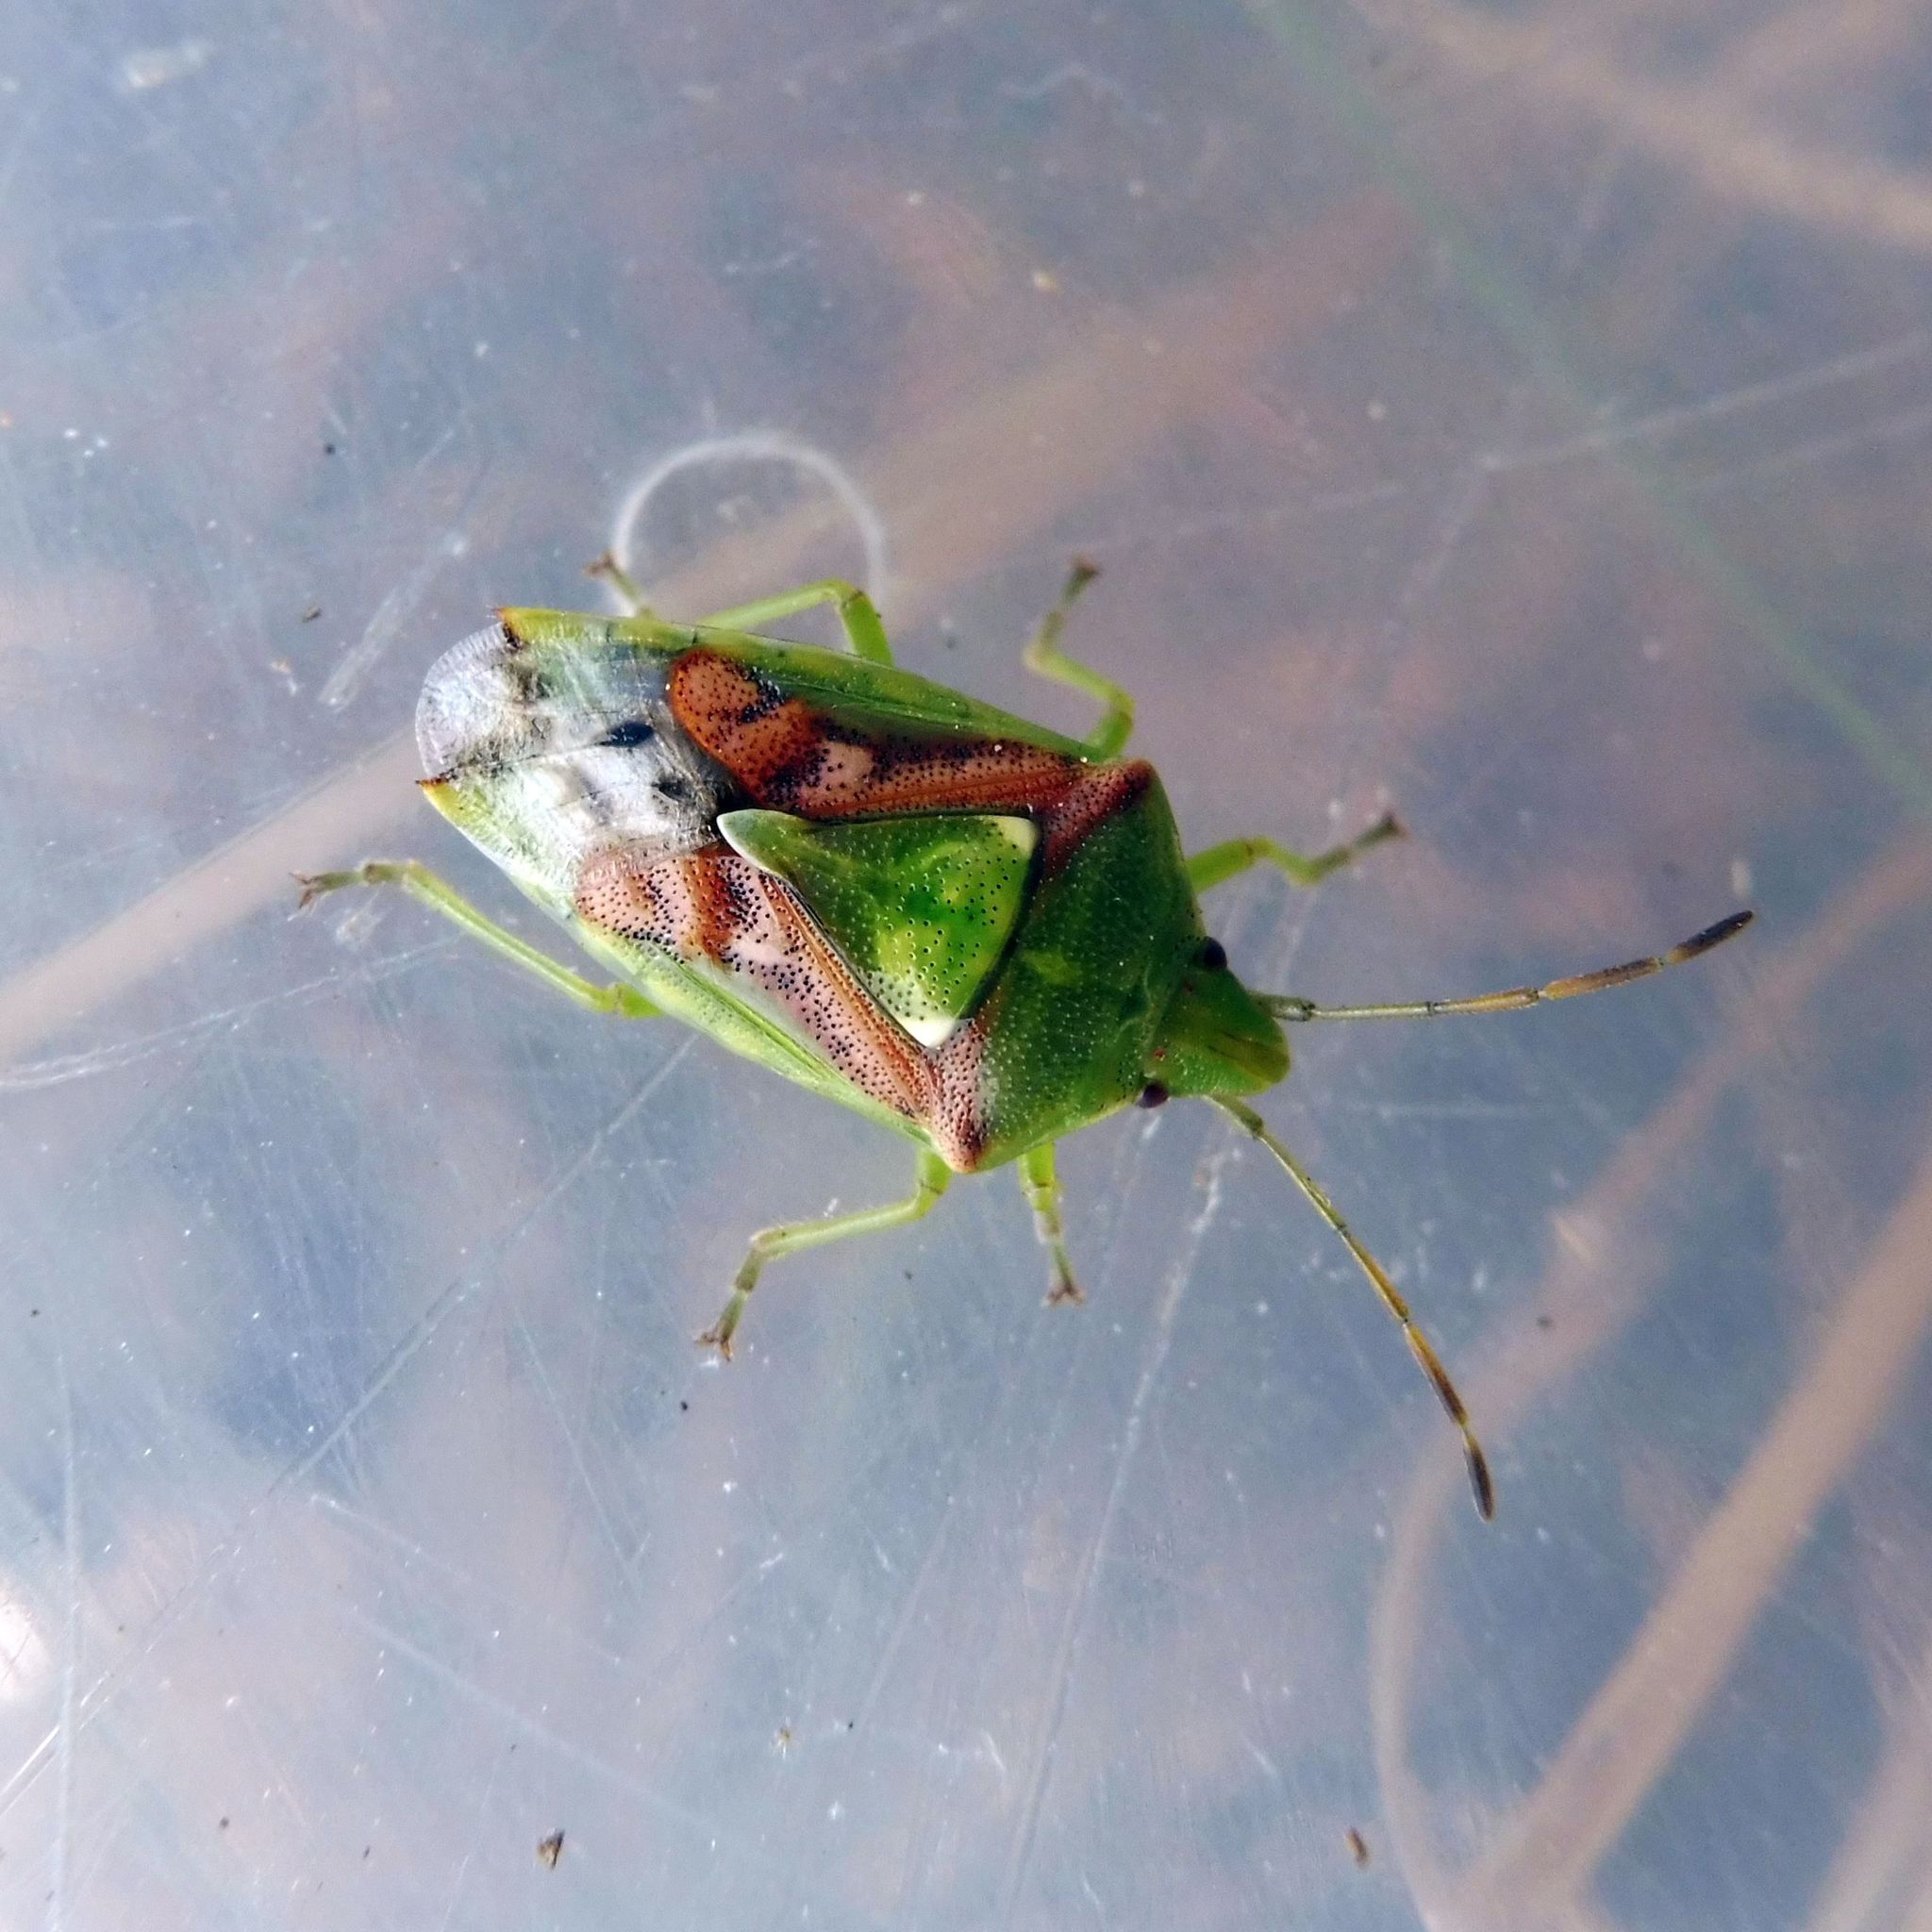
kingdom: Animalia
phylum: Arthropoda
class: Insecta
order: Hemiptera
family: Acanthosomatidae
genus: Cyphostethus
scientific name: Cyphostethus tristriatus
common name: Juniper shieldbug
